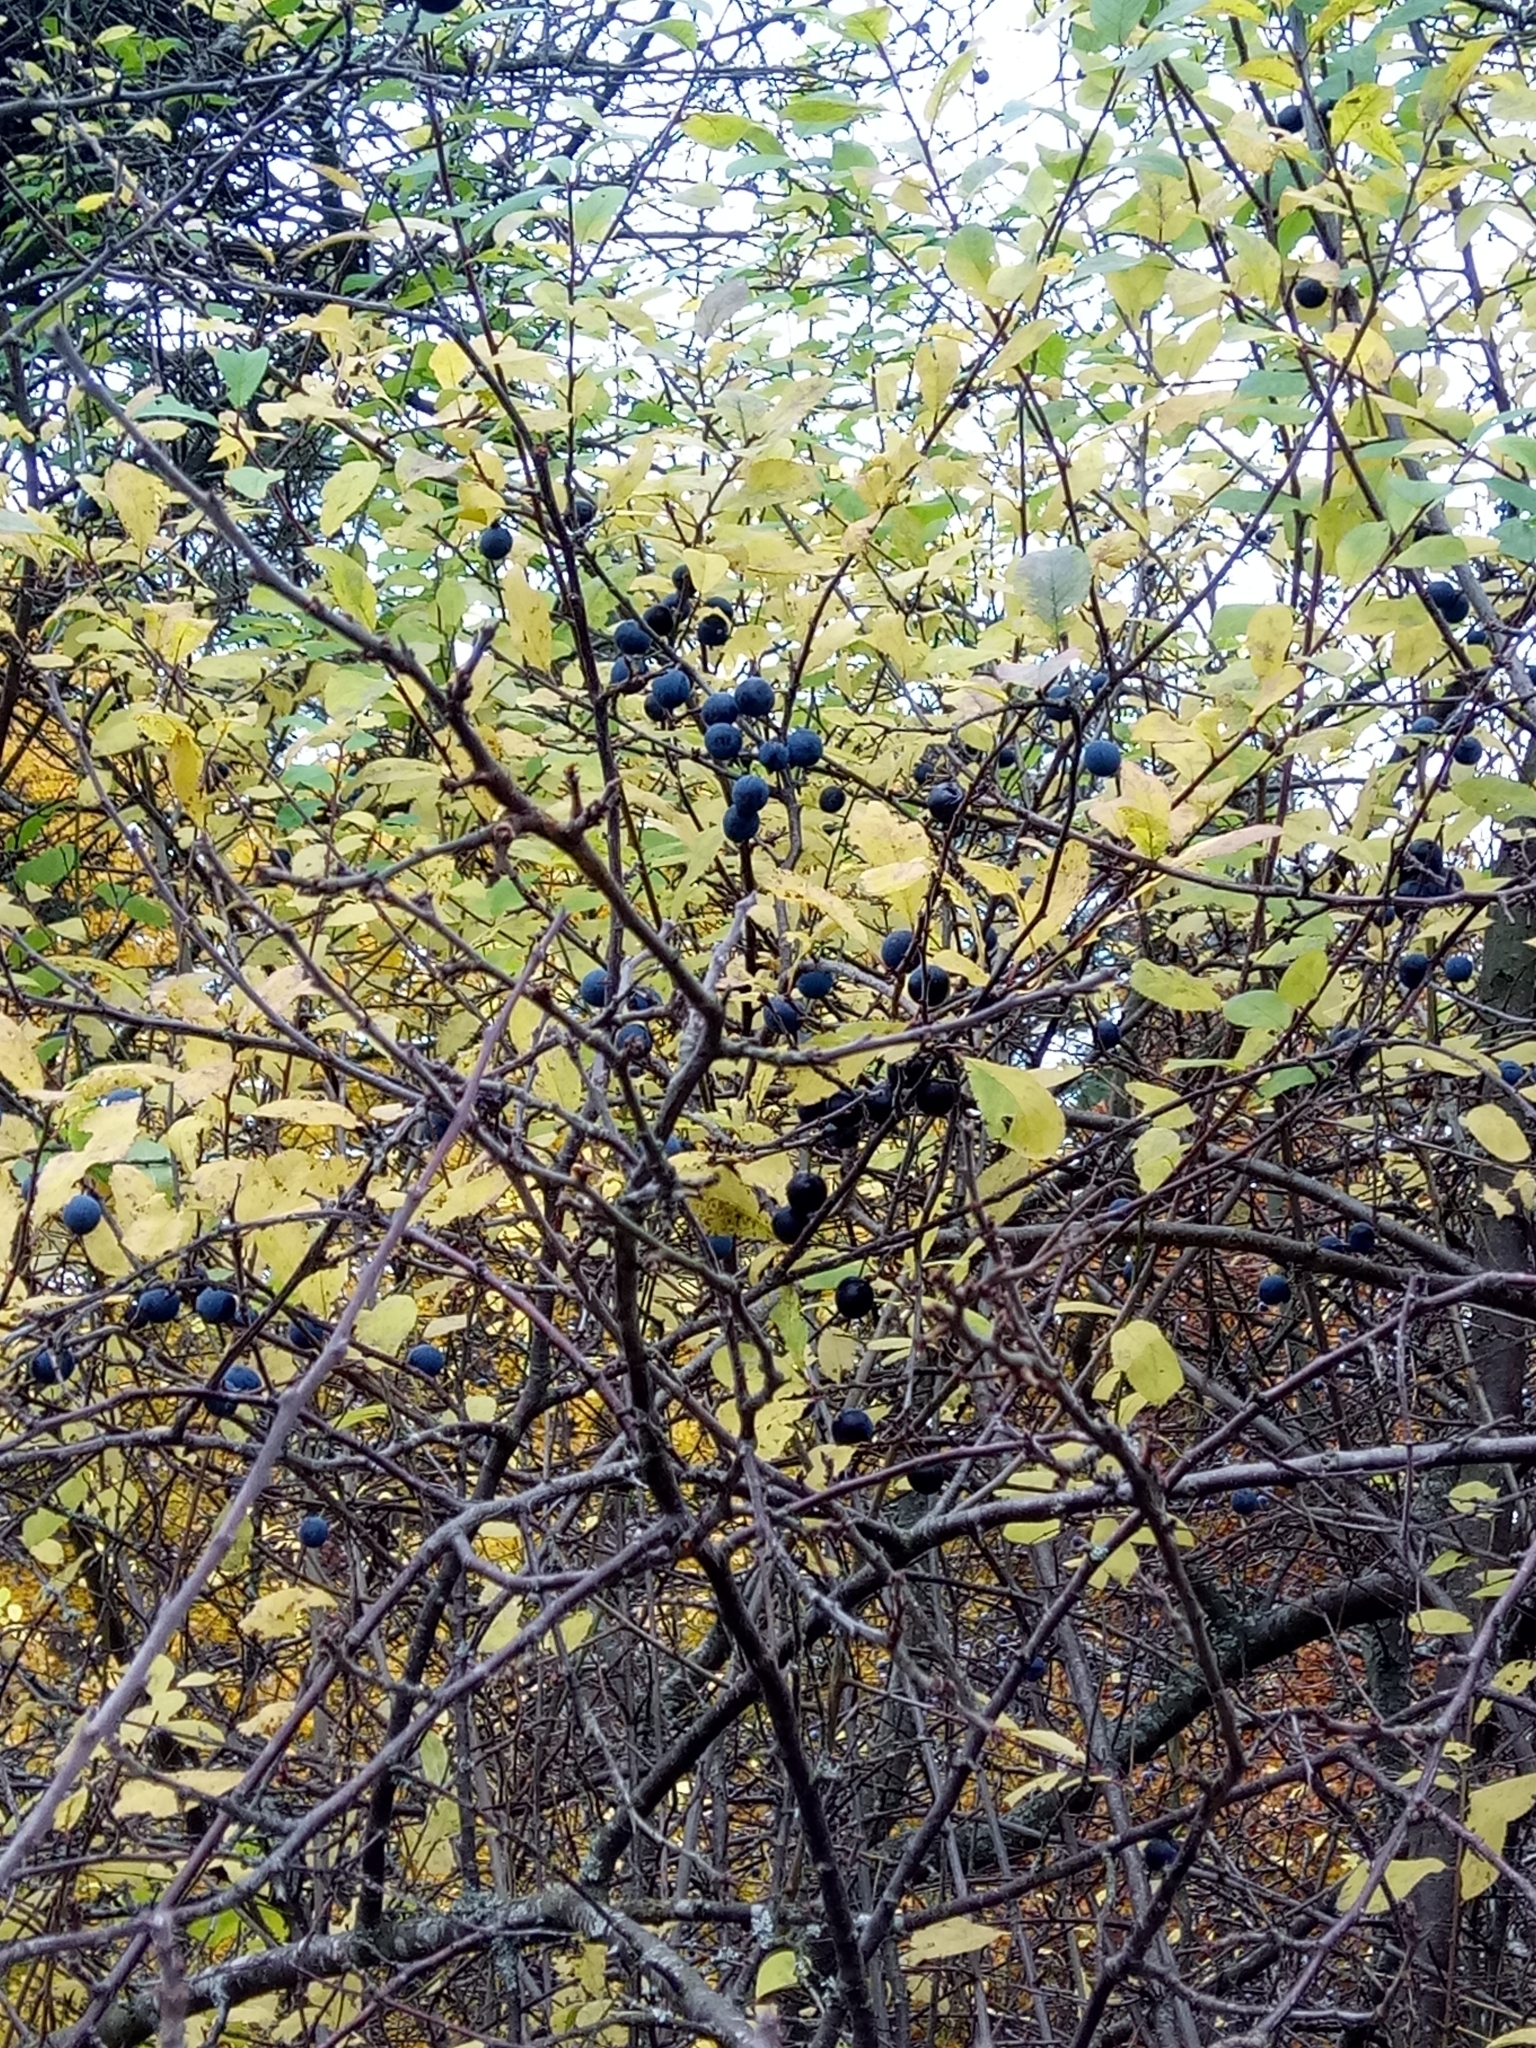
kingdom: Plantae
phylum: Tracheophyta
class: Magnoliopsida
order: Rosales
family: Rosaceae
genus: Prunus
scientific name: Prunus spinosa
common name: Blackthorn
